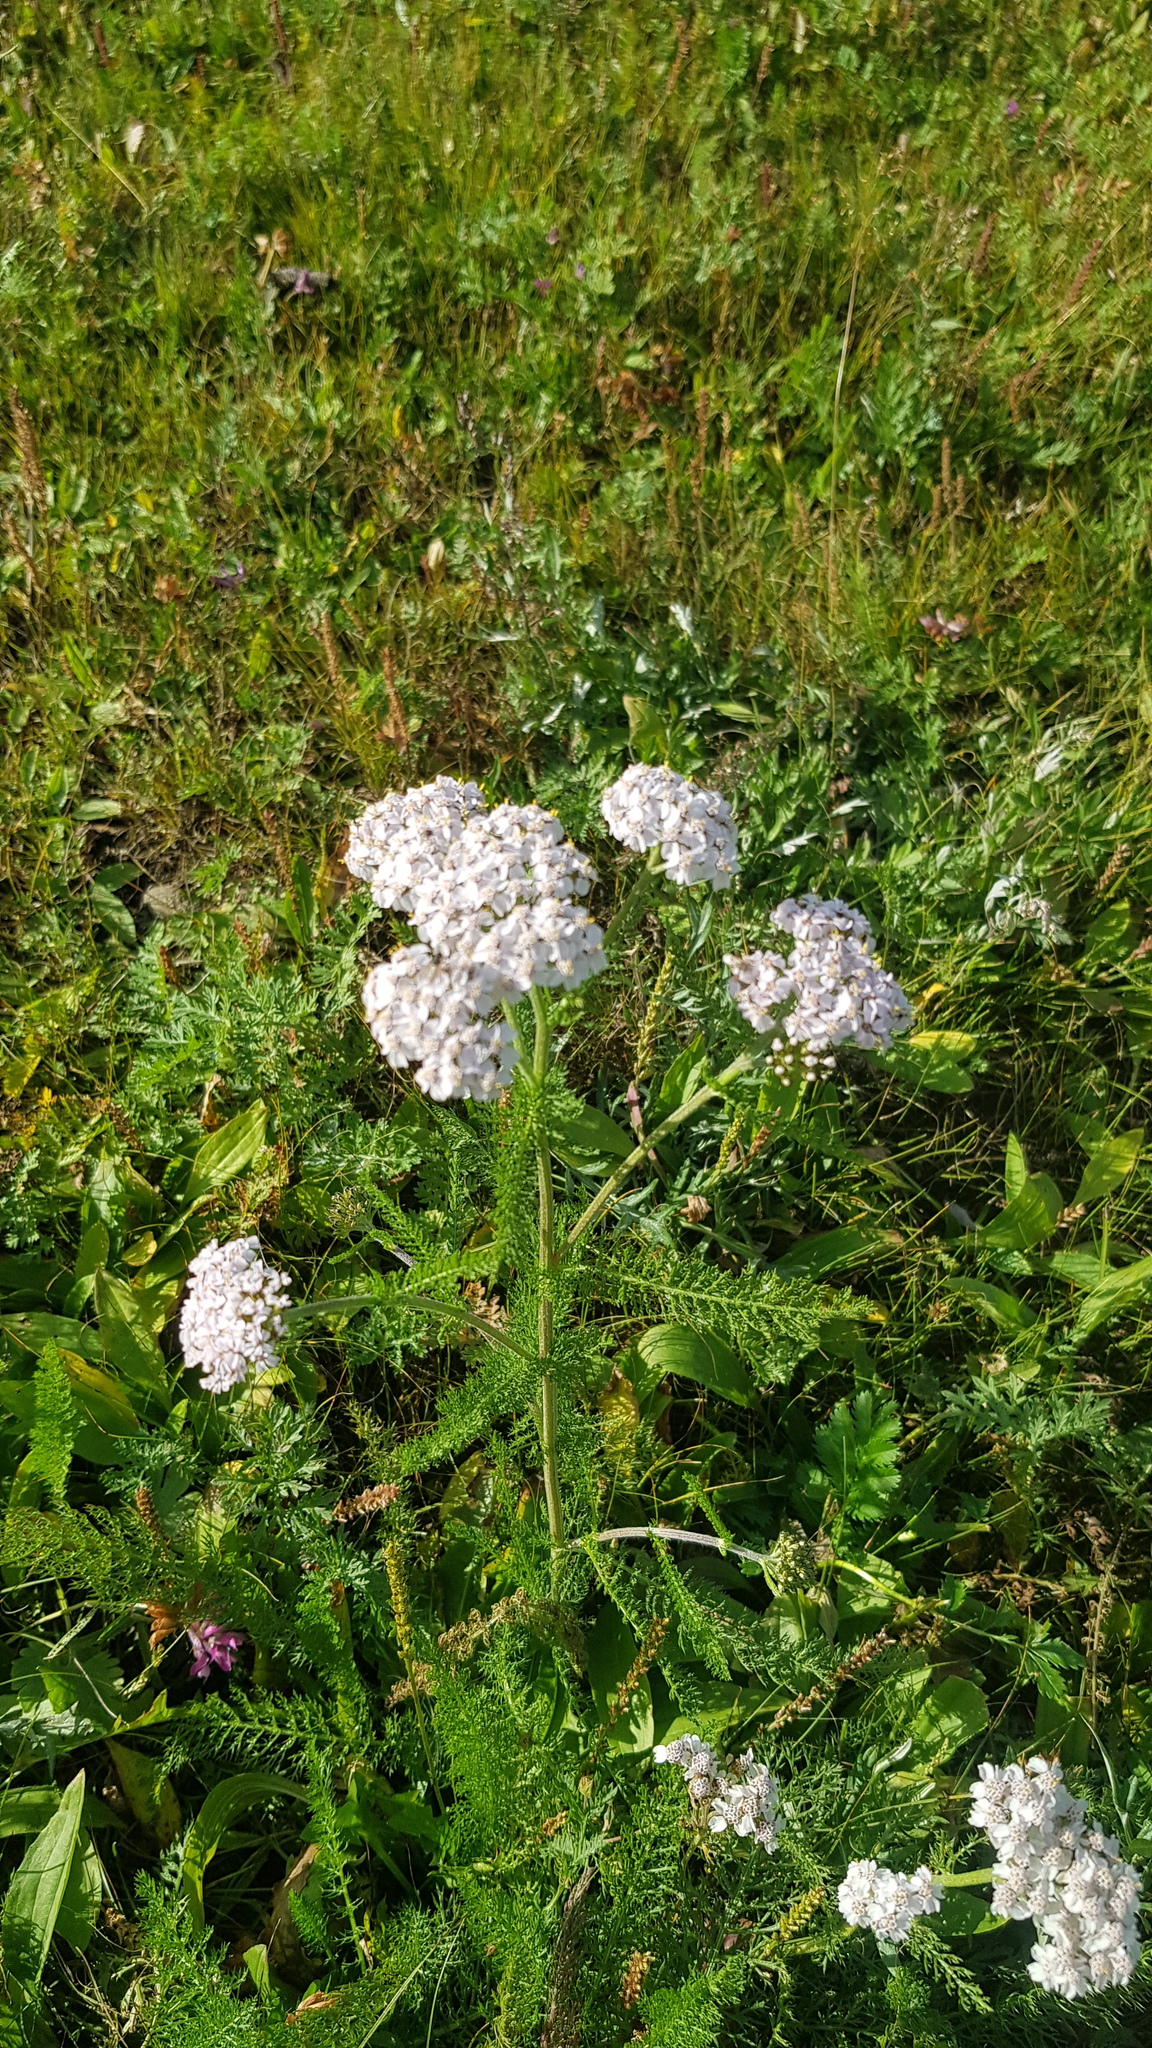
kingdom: Plantae
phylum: Tracheophyta
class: Magnoliopsida
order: Asterales
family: Asteraceae
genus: Achillea
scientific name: Achillea asiatica
